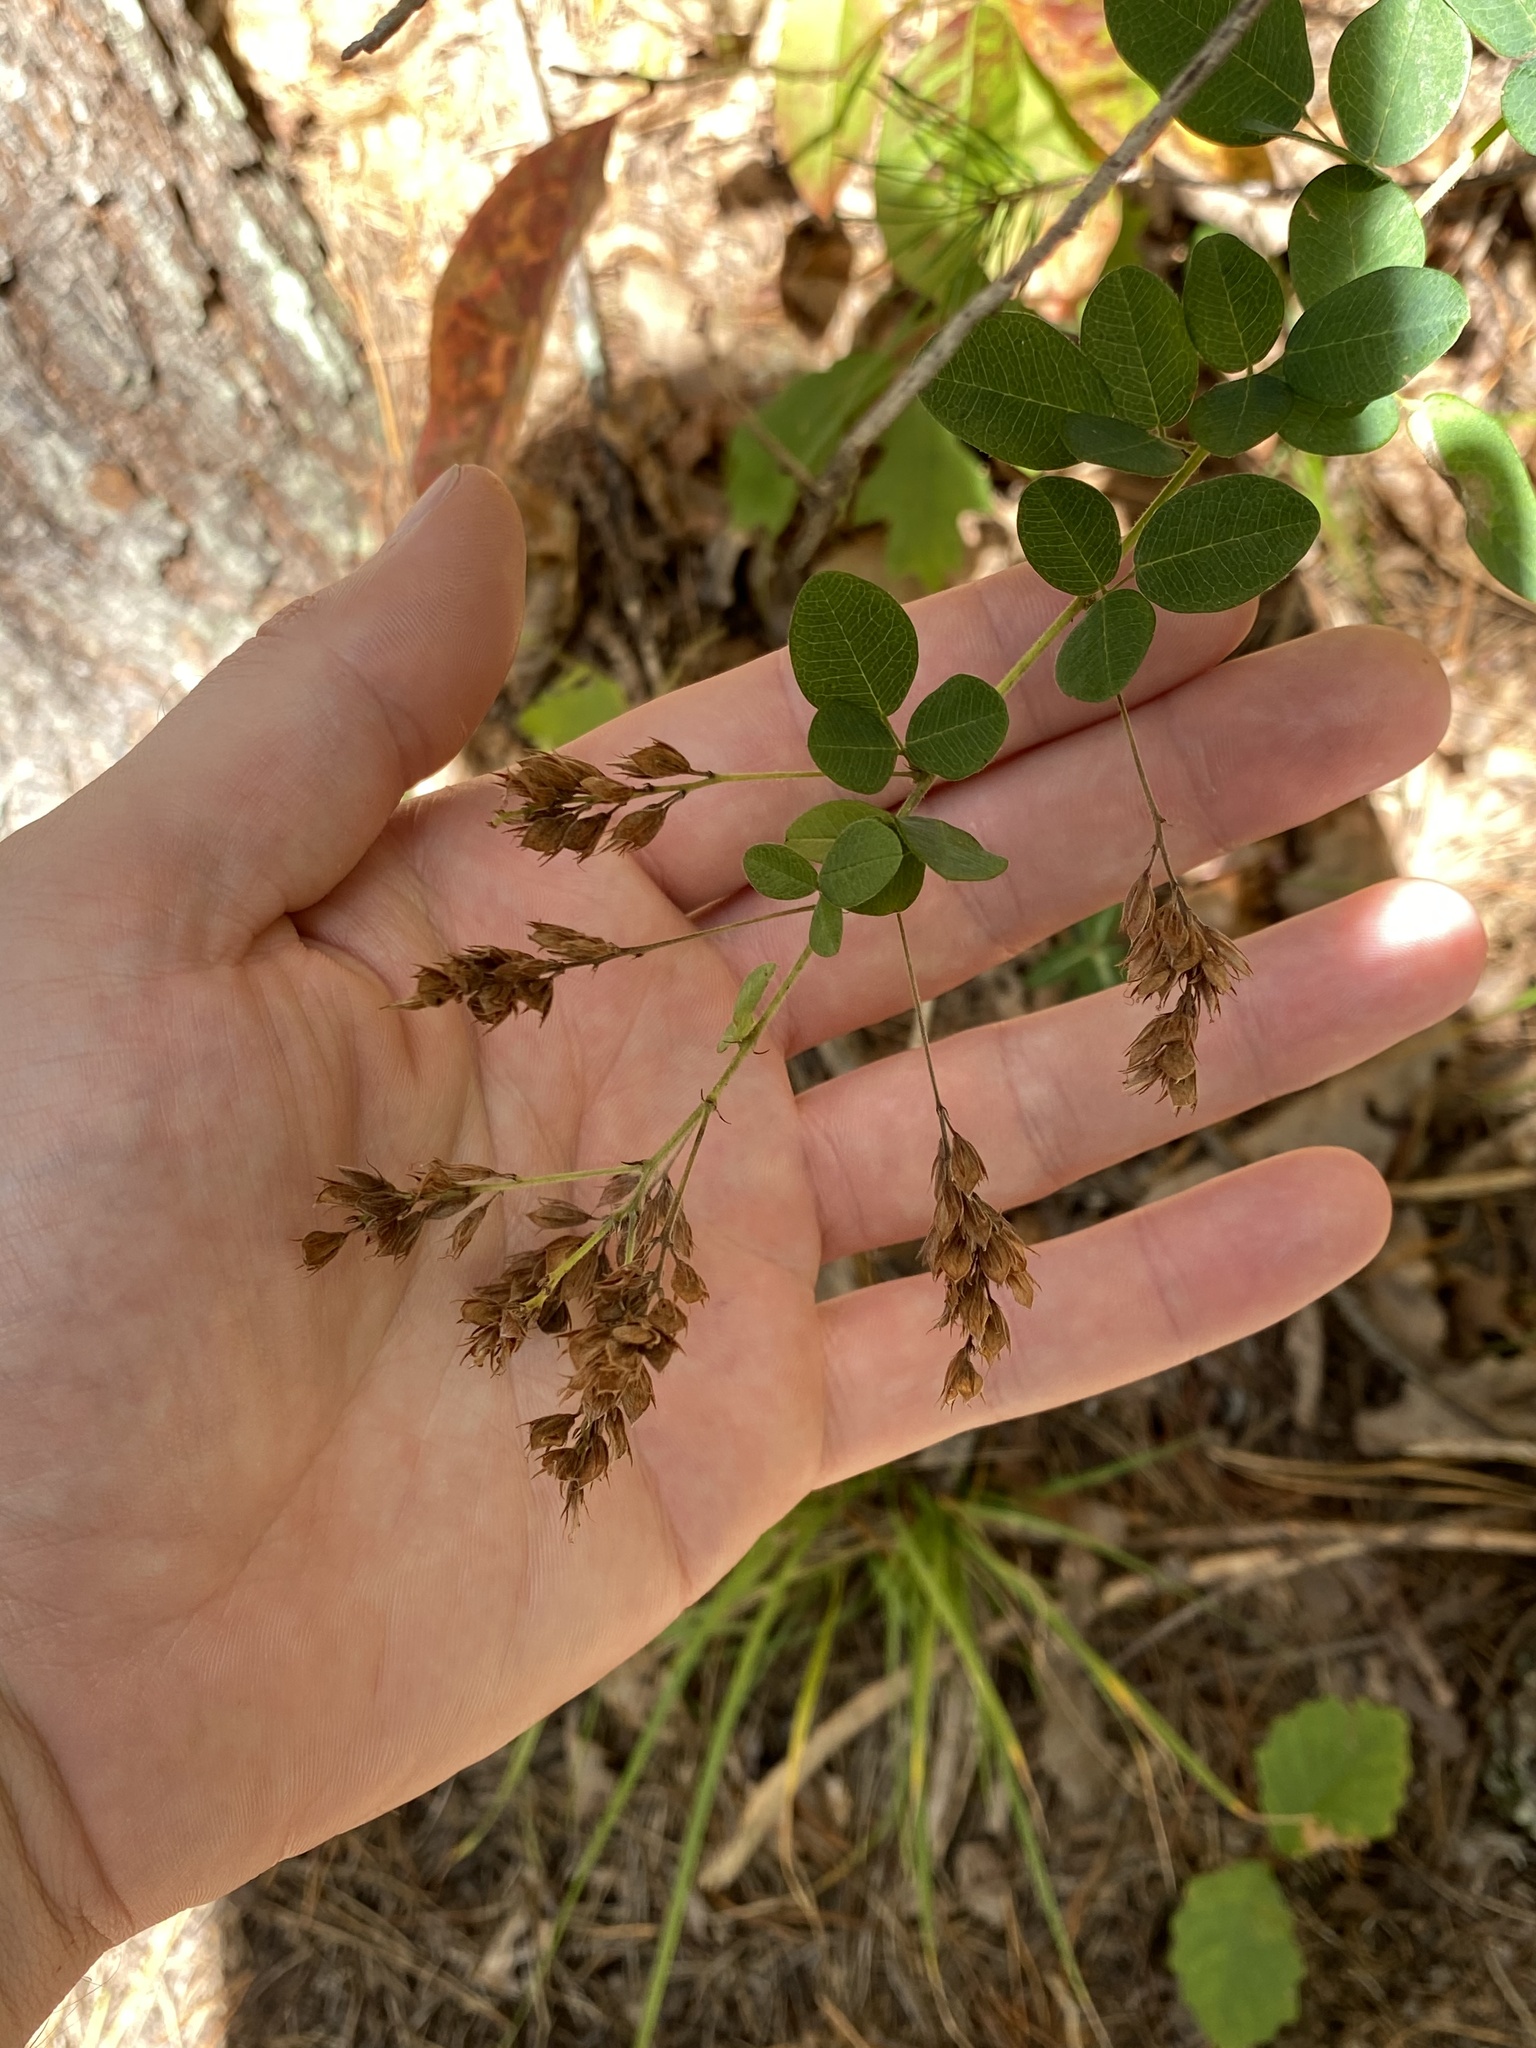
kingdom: Plantae
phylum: Tracheophyta
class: Magnoliopsida
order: Fabales
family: Fabaceae
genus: Lespedeza
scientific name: Lespedeza hirta
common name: Hairy lespedeza
